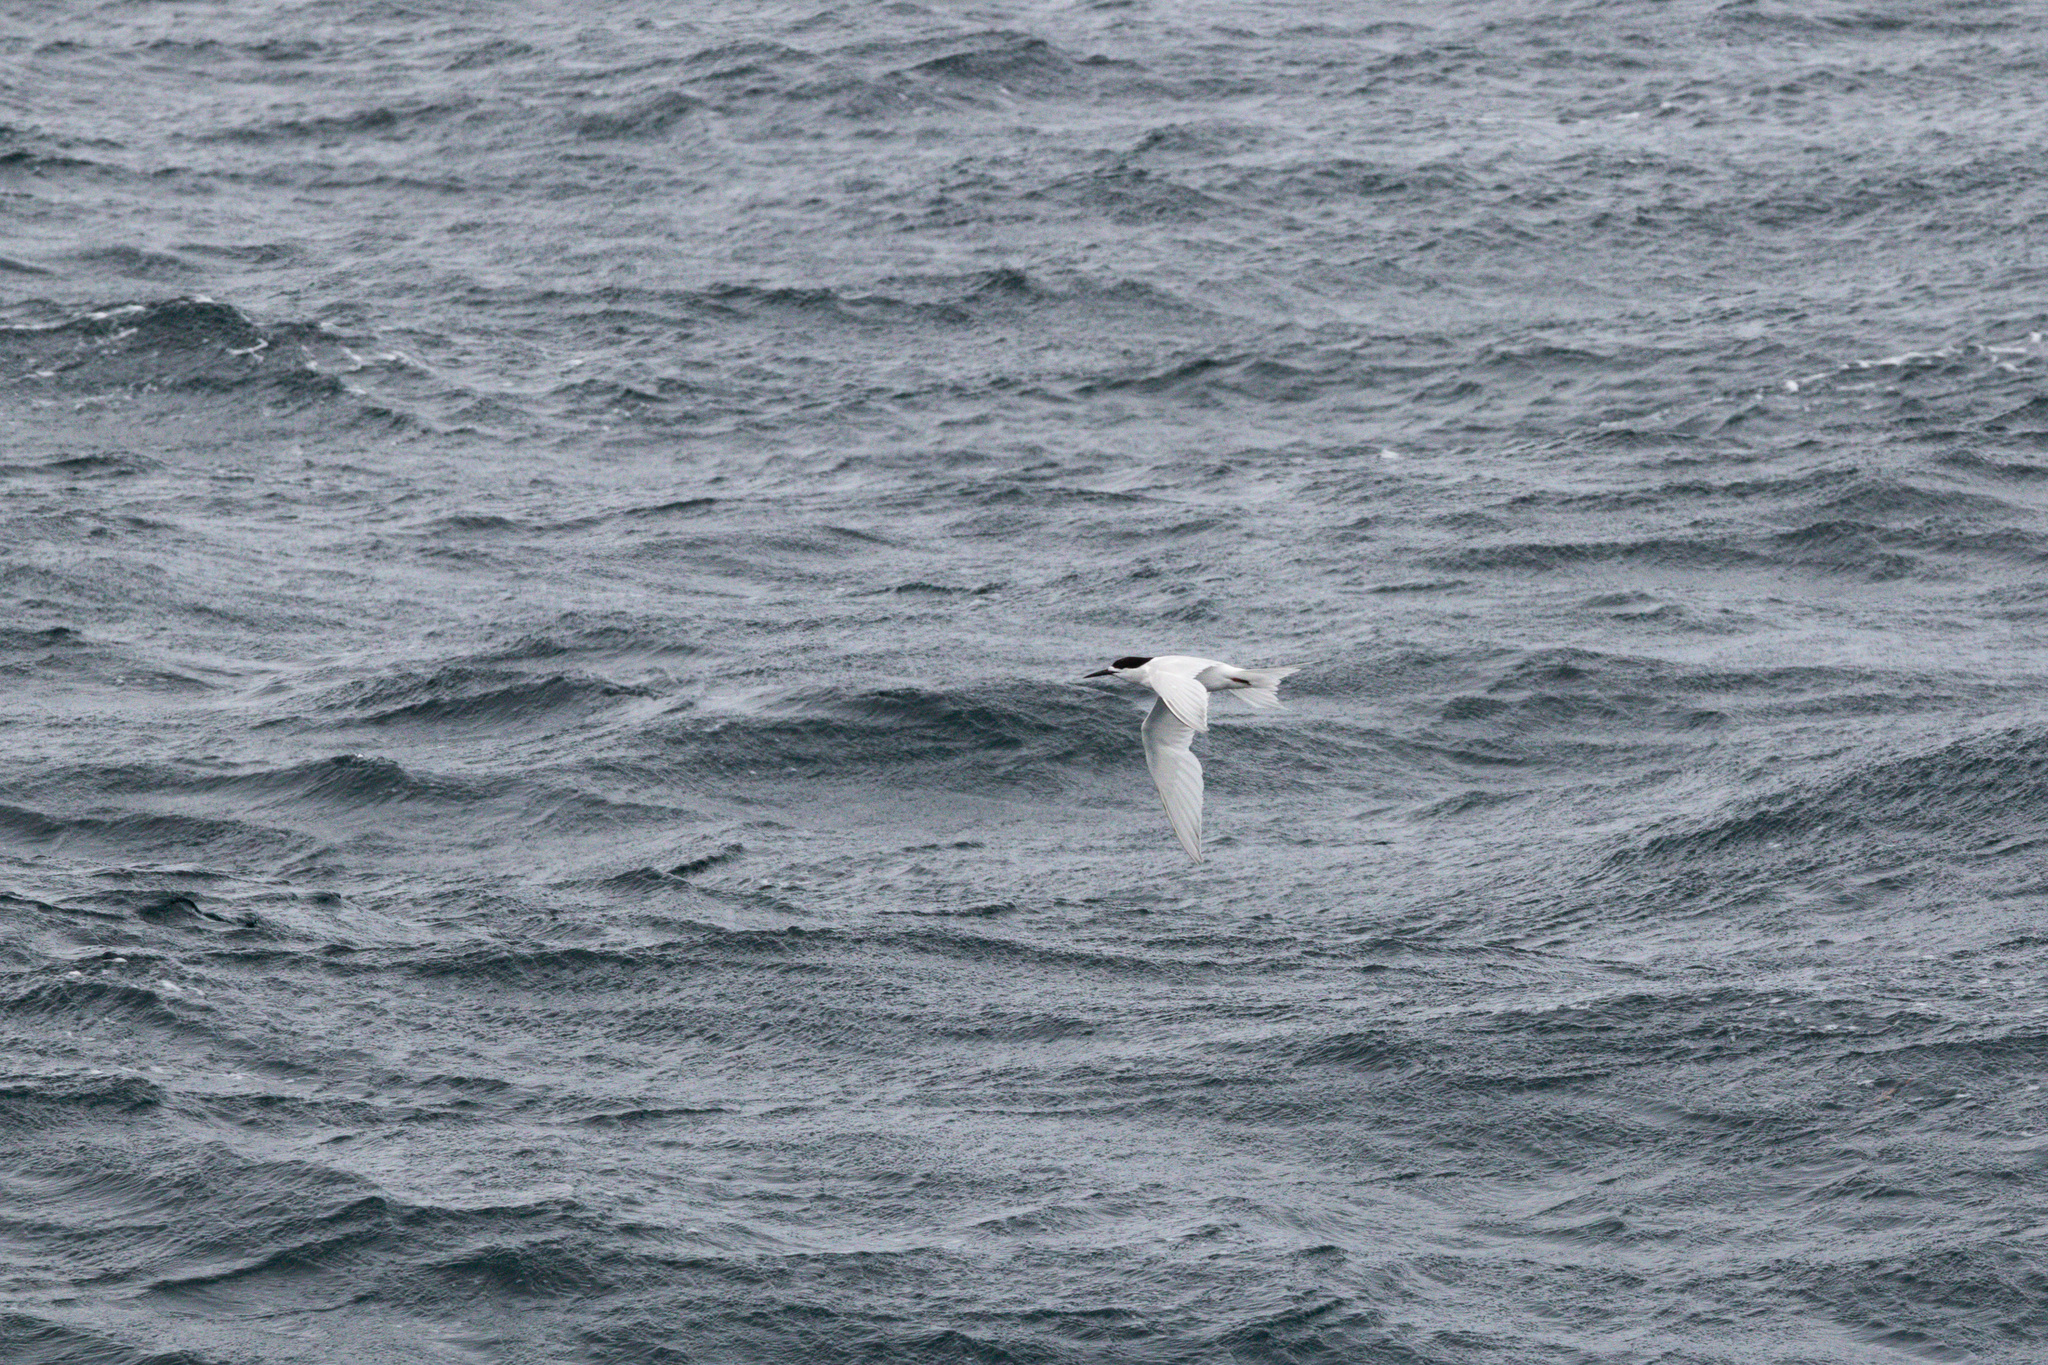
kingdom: Animalia
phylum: Chordata
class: Aves
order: Charadriiformes
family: Laridae
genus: Sterna
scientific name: Sterna striata
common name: White-fronted tern
